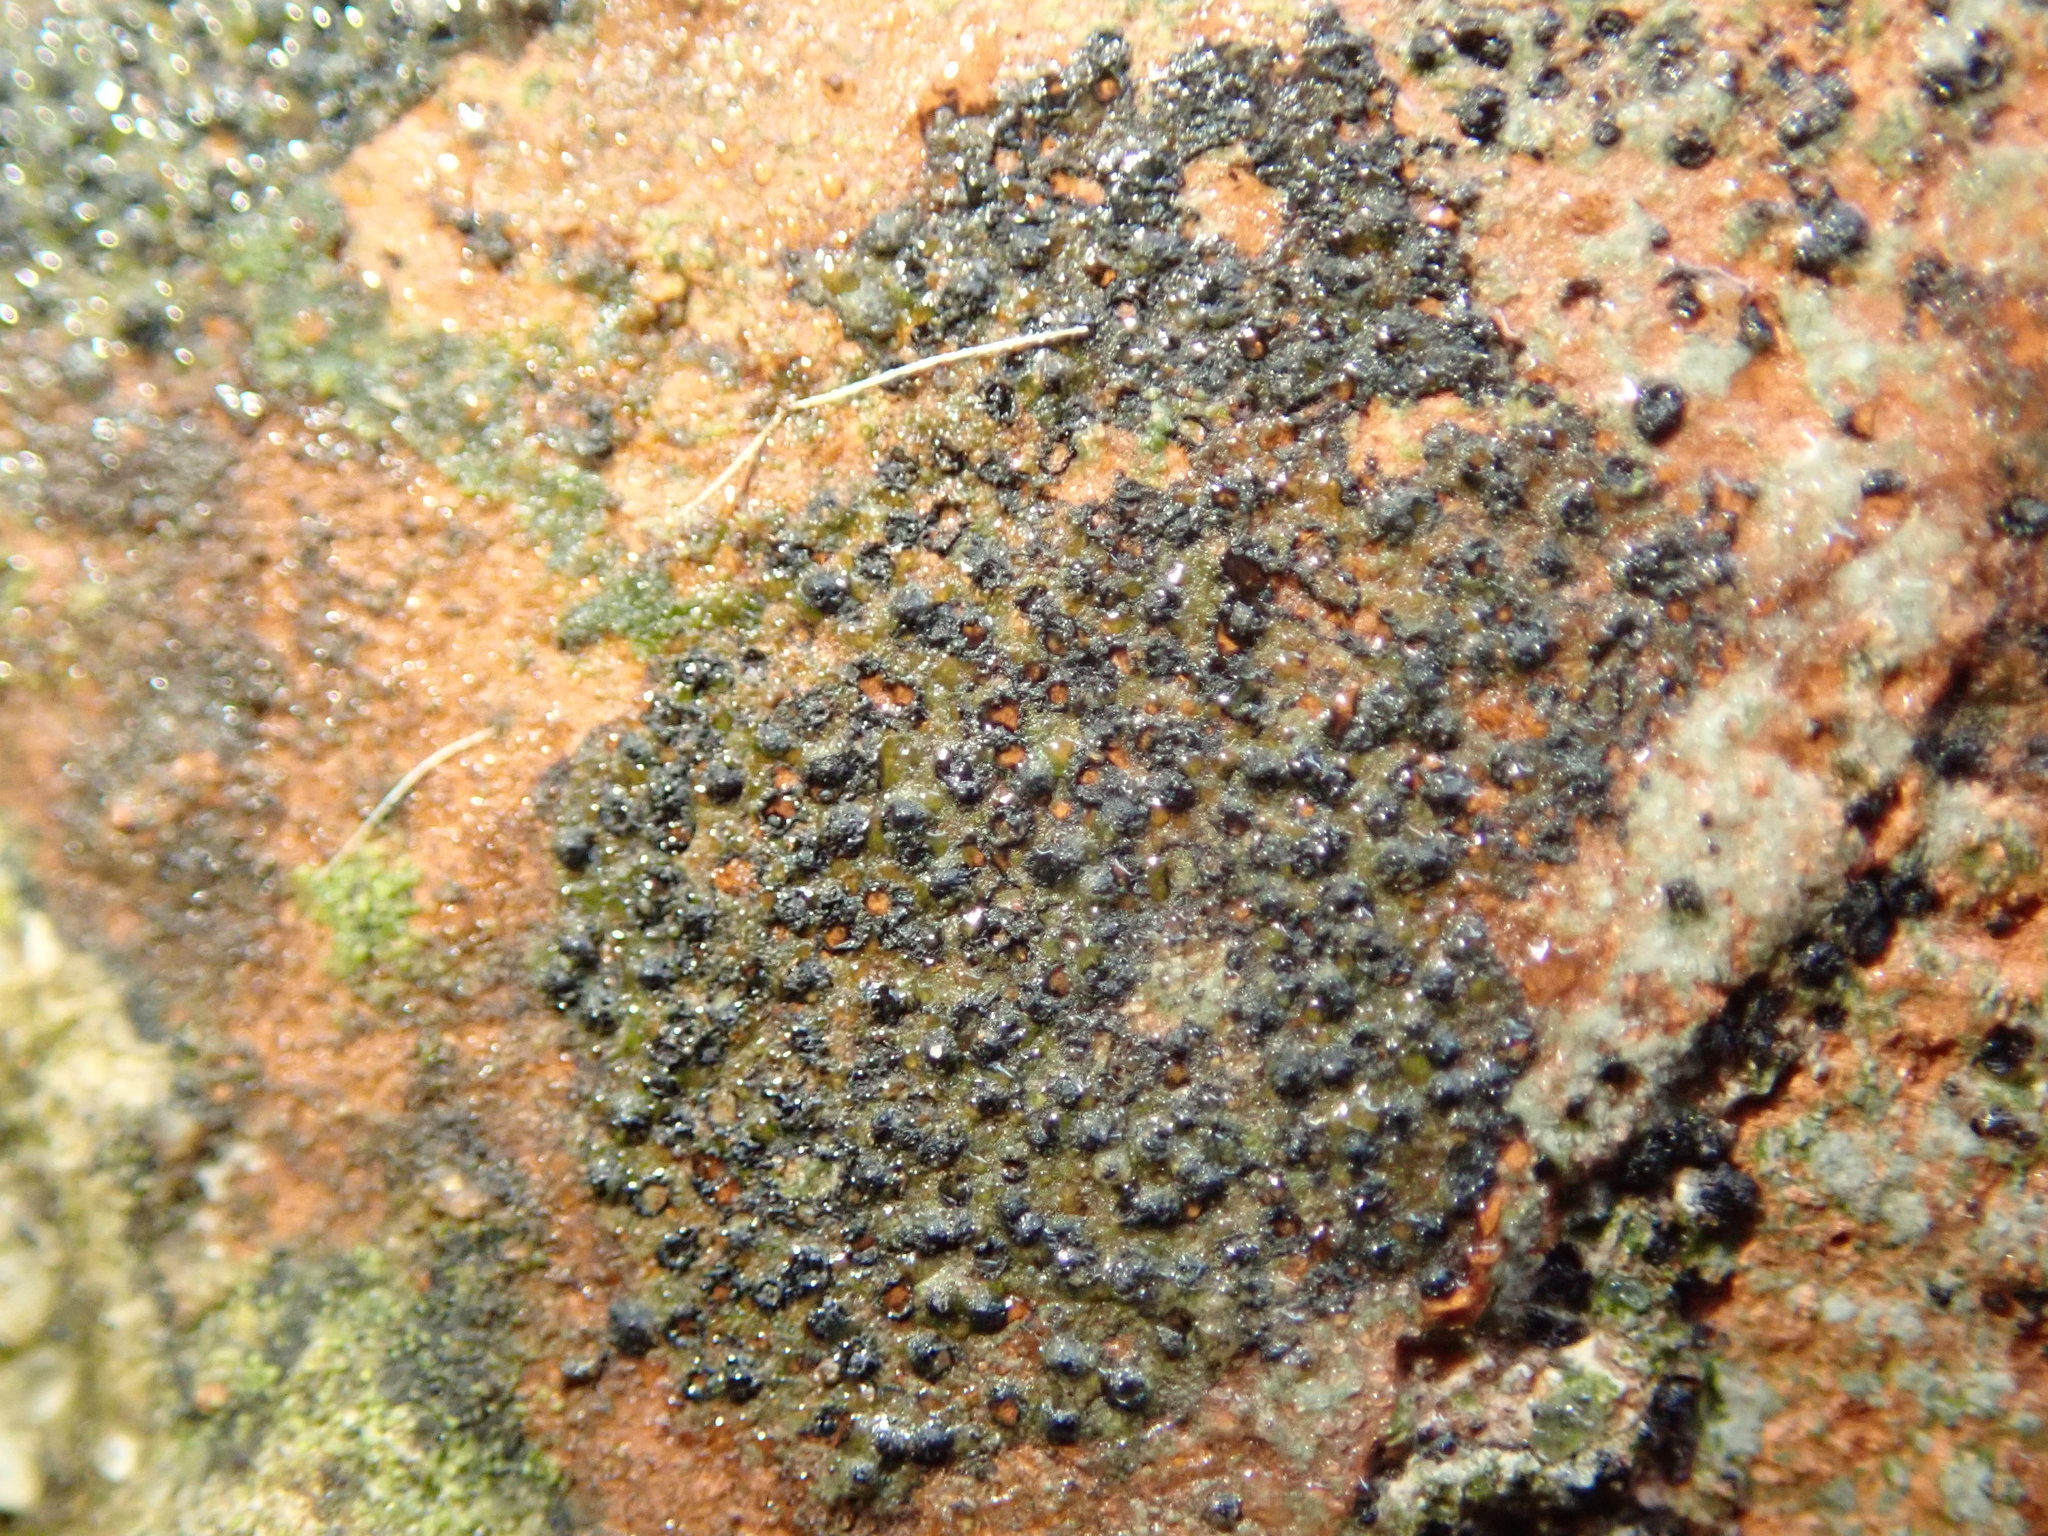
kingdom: Fungi
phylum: Ascomycota
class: Eurotiomycetes
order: Verrucariales
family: Verrucariaceae
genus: Verrucaria
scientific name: Verrucaria
